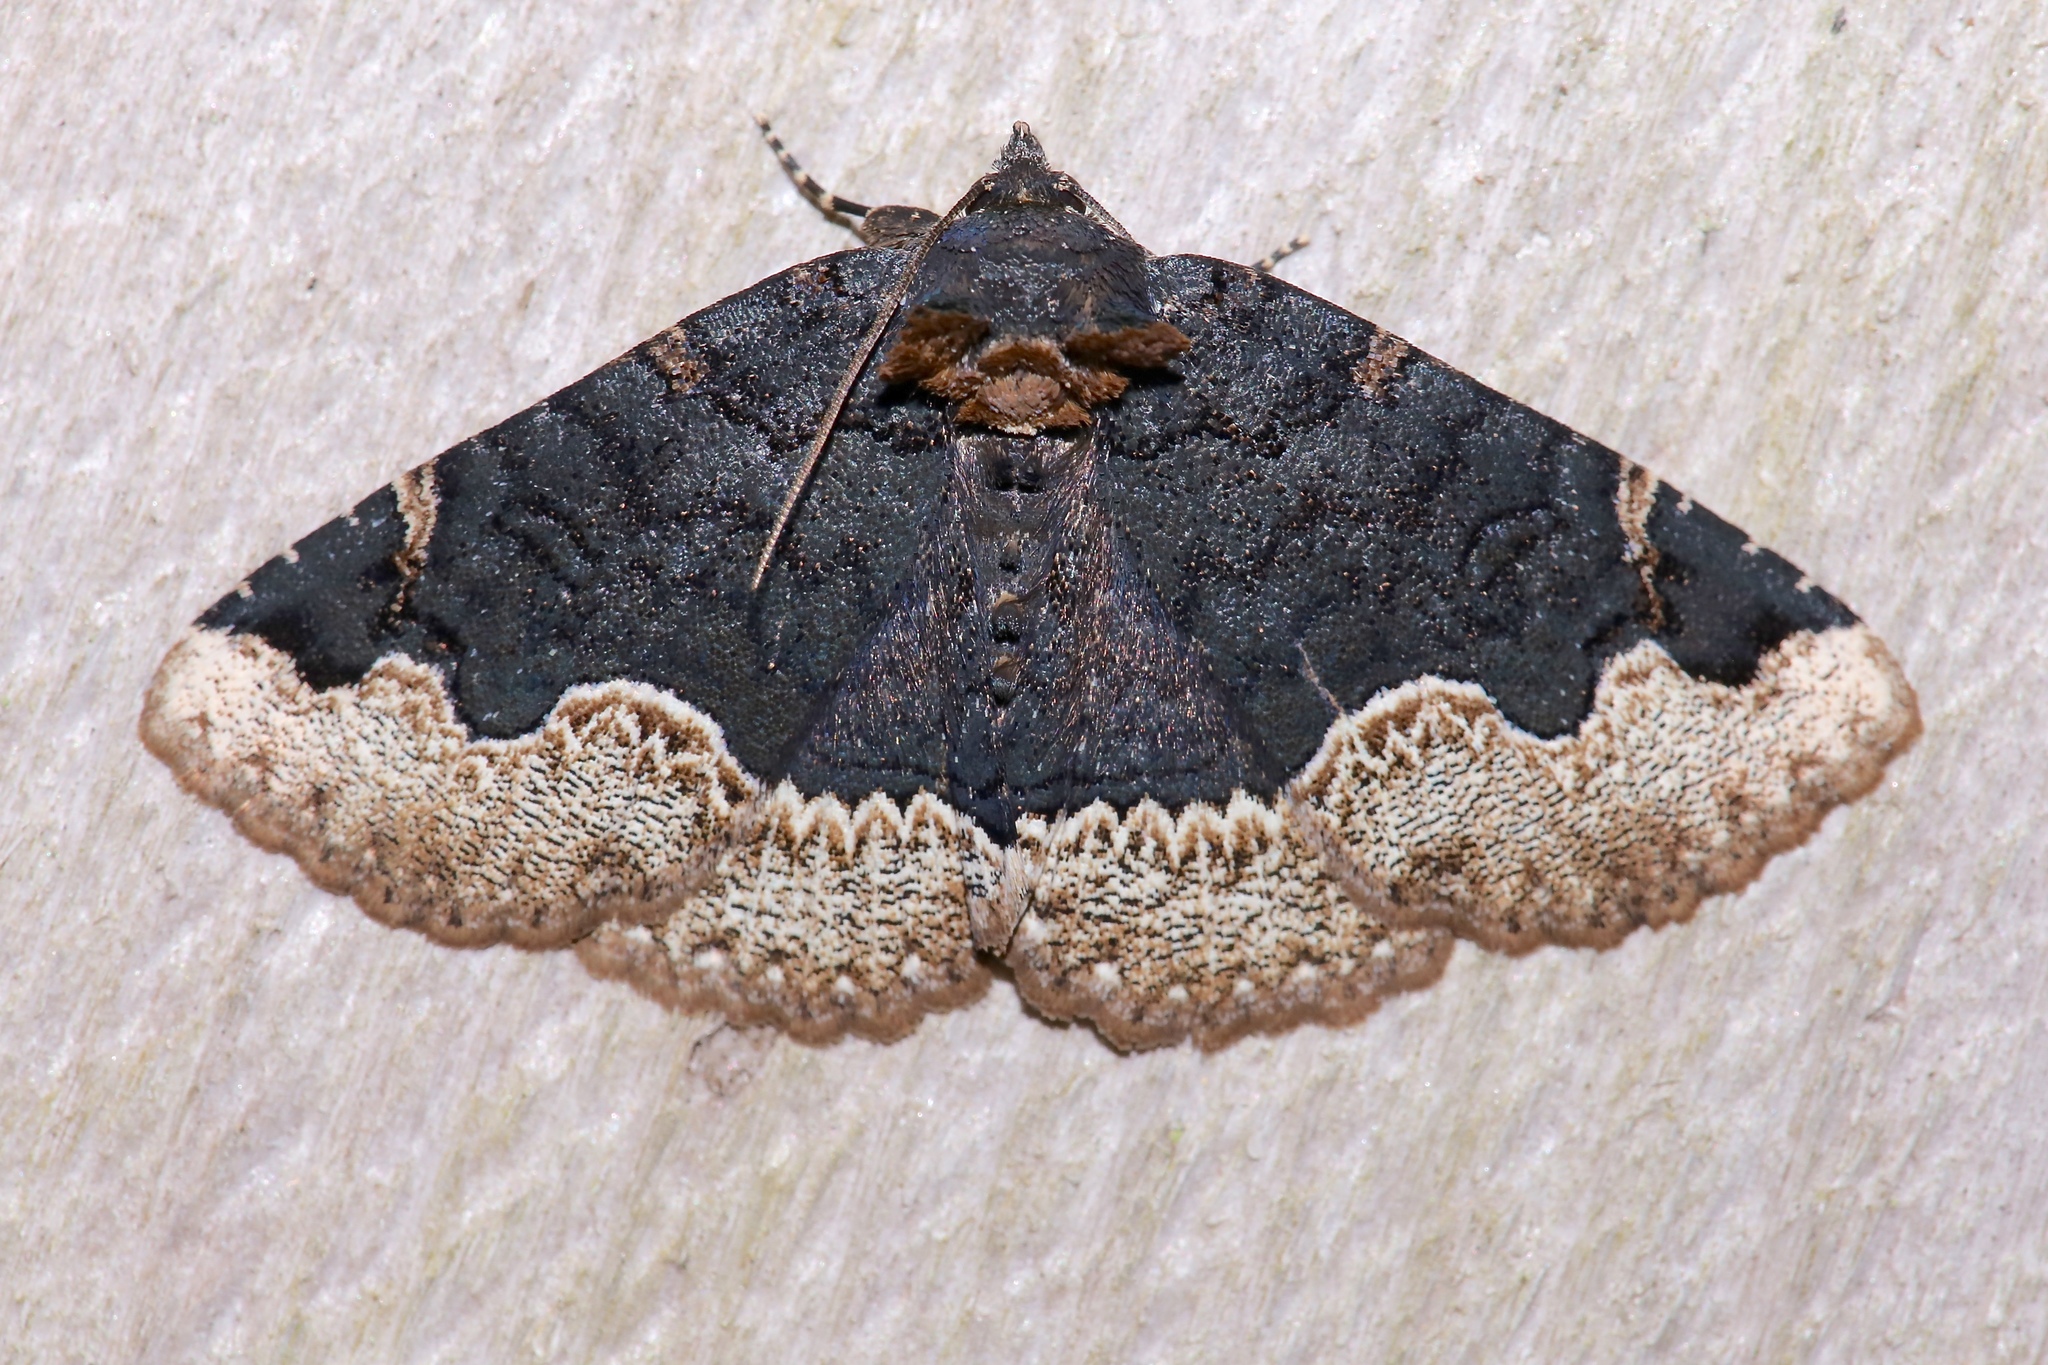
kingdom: Animalia
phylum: Arthropoda
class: Insecta
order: Lepidoptera
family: Erebidae
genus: Zale
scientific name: Zale horrida
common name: Horrid zale moth
